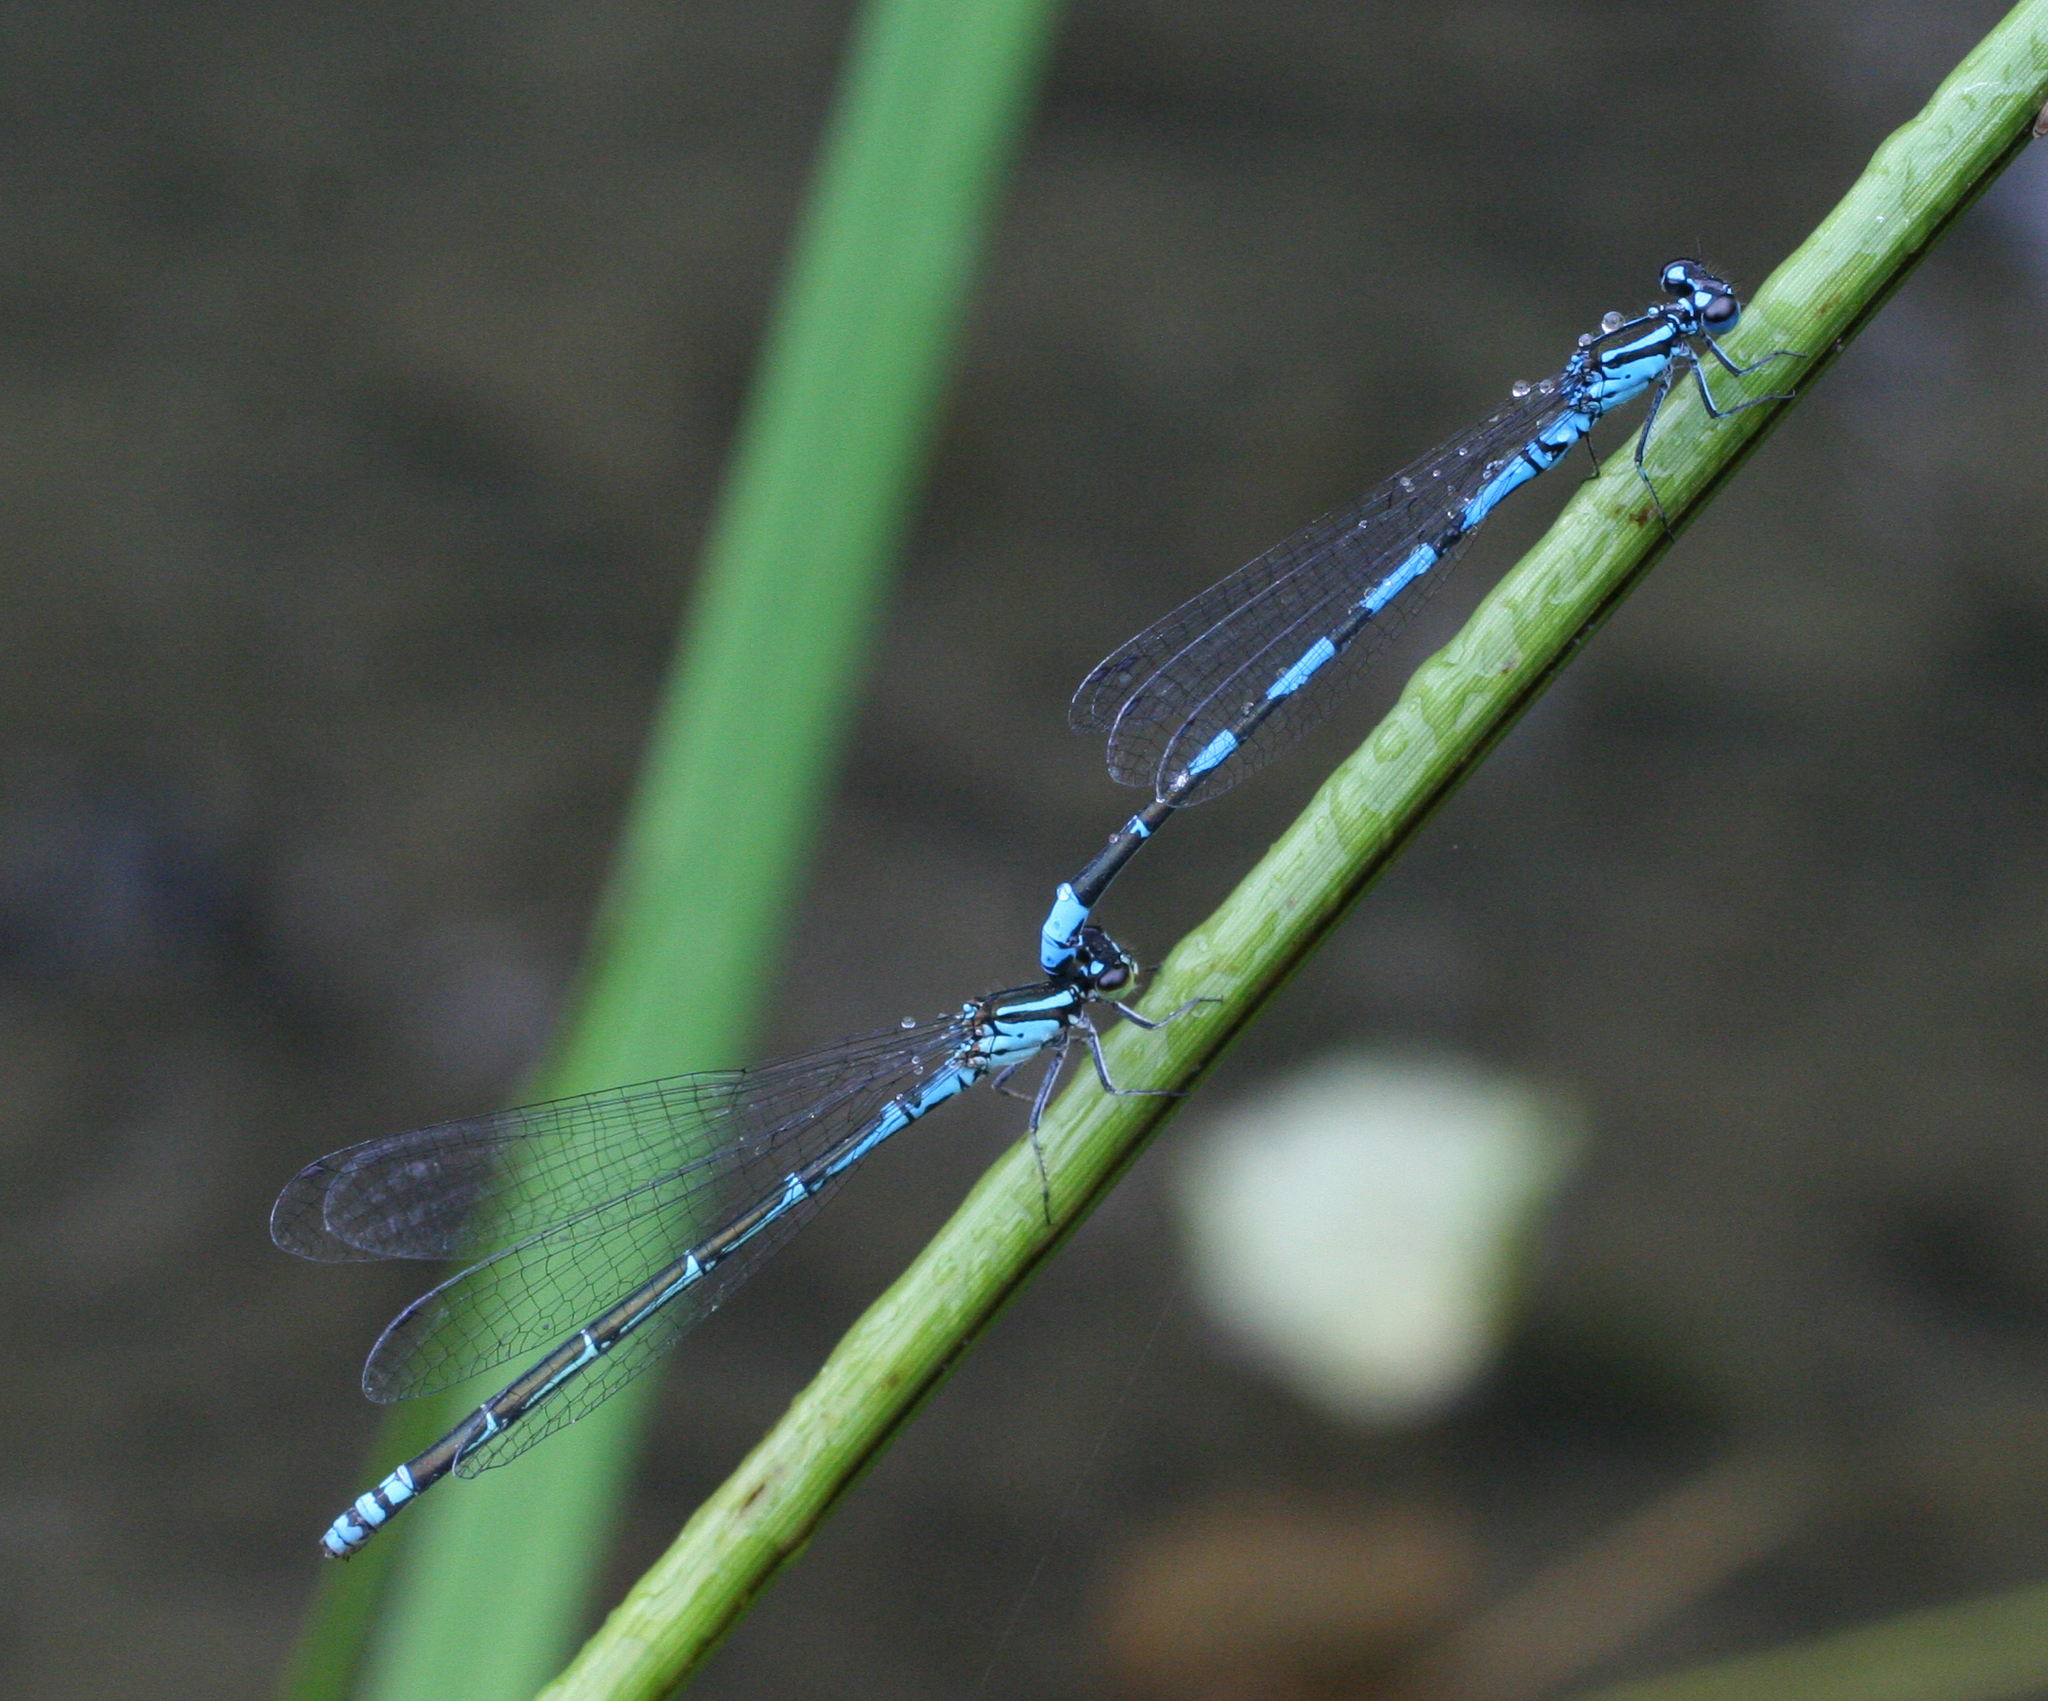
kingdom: Animalia
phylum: Arthropoda
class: Insecta
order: Odonata
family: Coenagrionidae
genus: Coenagrion
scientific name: Coenagrion johanssoni
